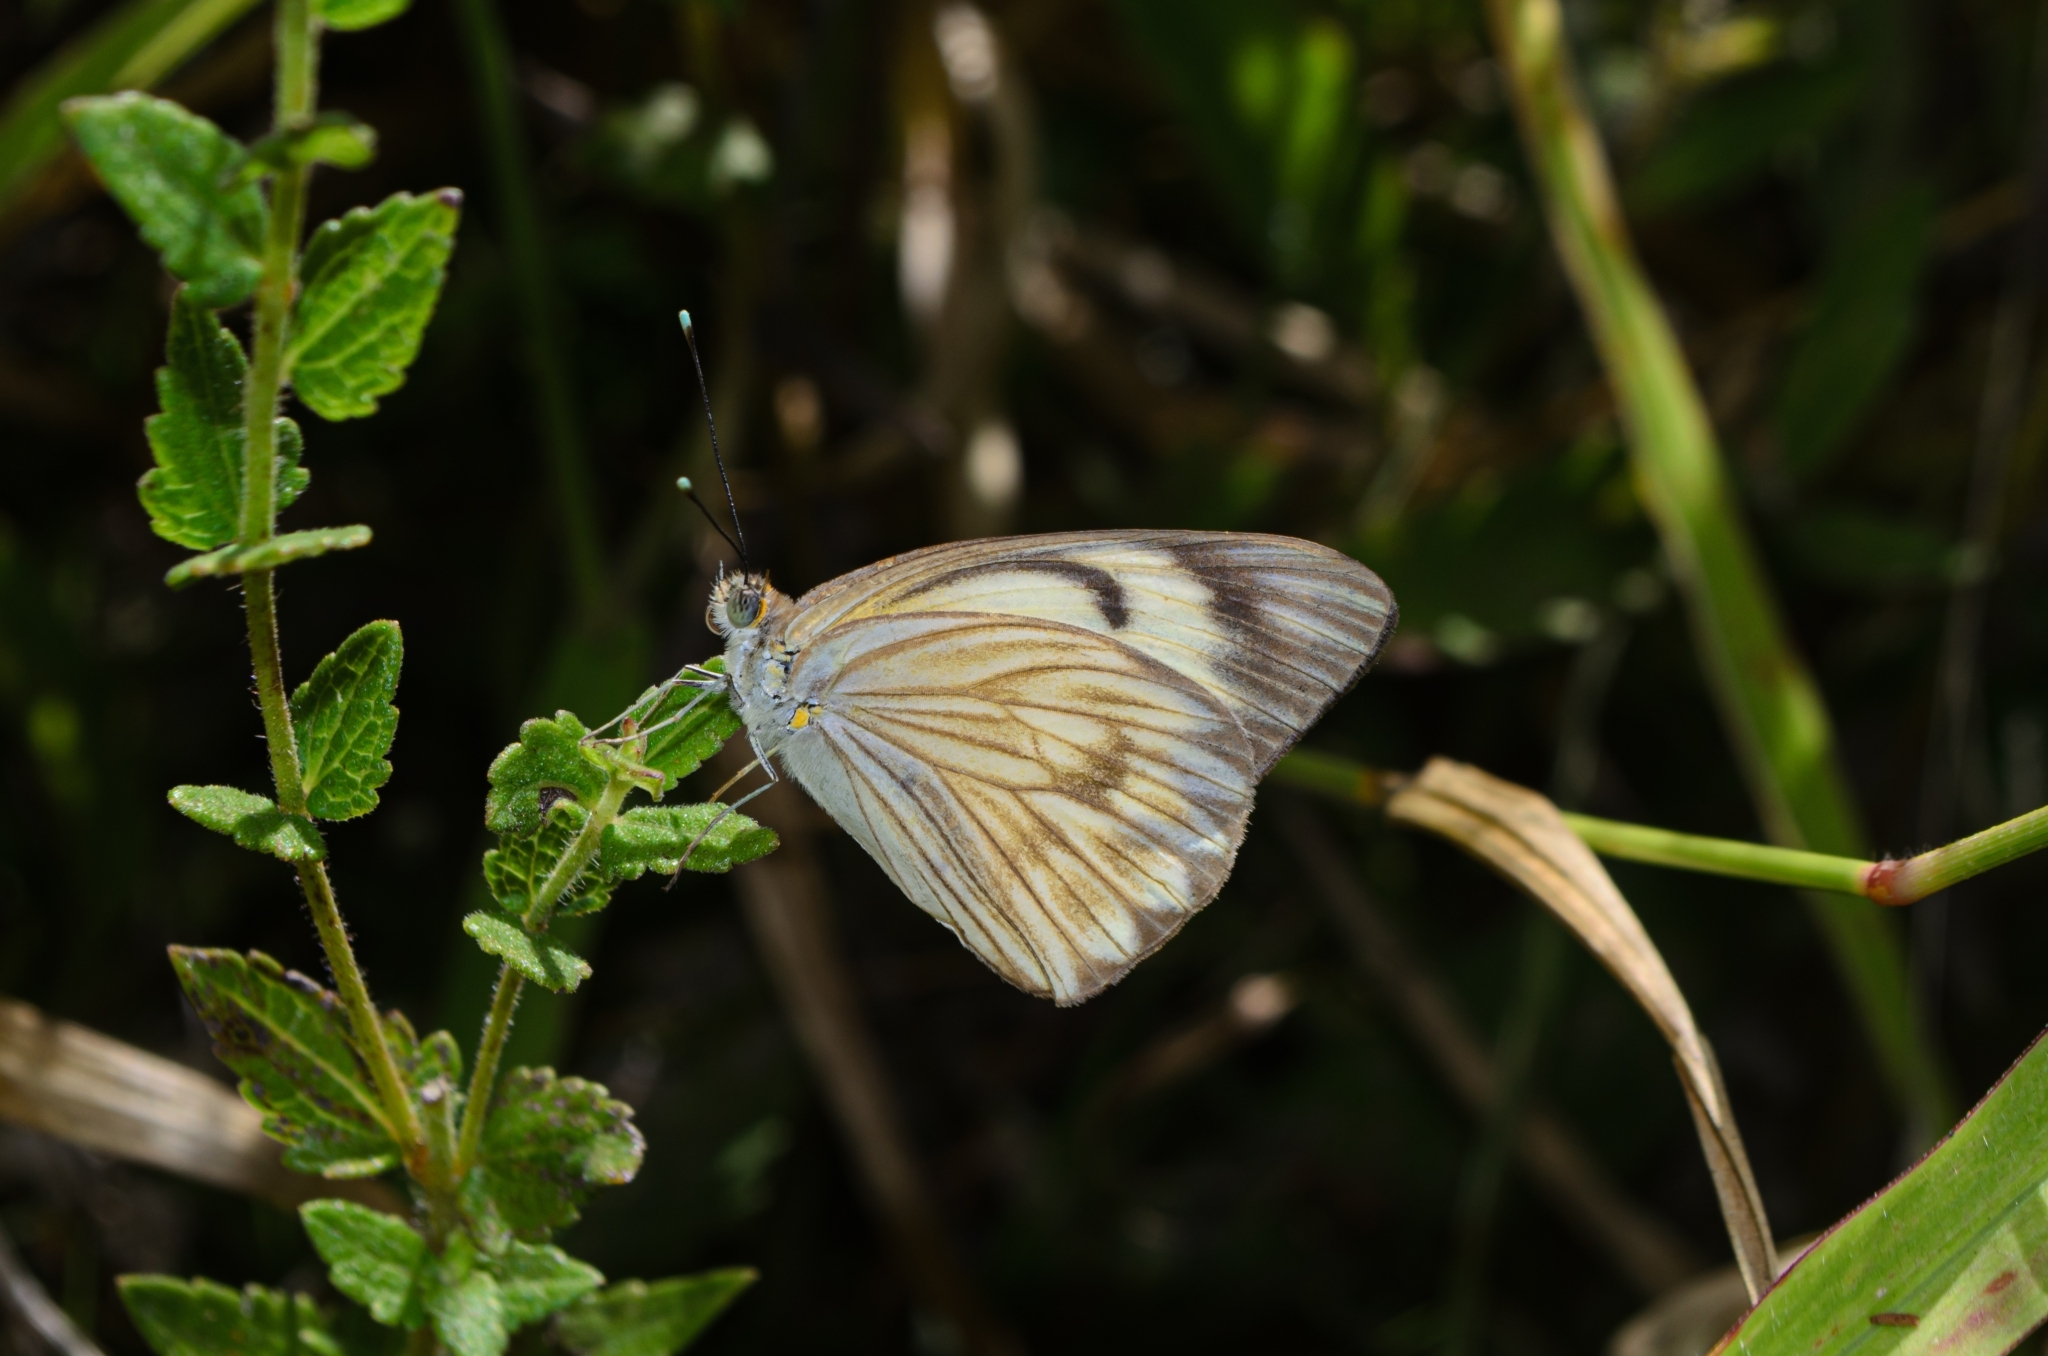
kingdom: Animalia
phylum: Arthropoda
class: Insecta
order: Lepidoptera
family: Pieridae
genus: Ascia
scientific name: Ascia monuste
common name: Great southern white
